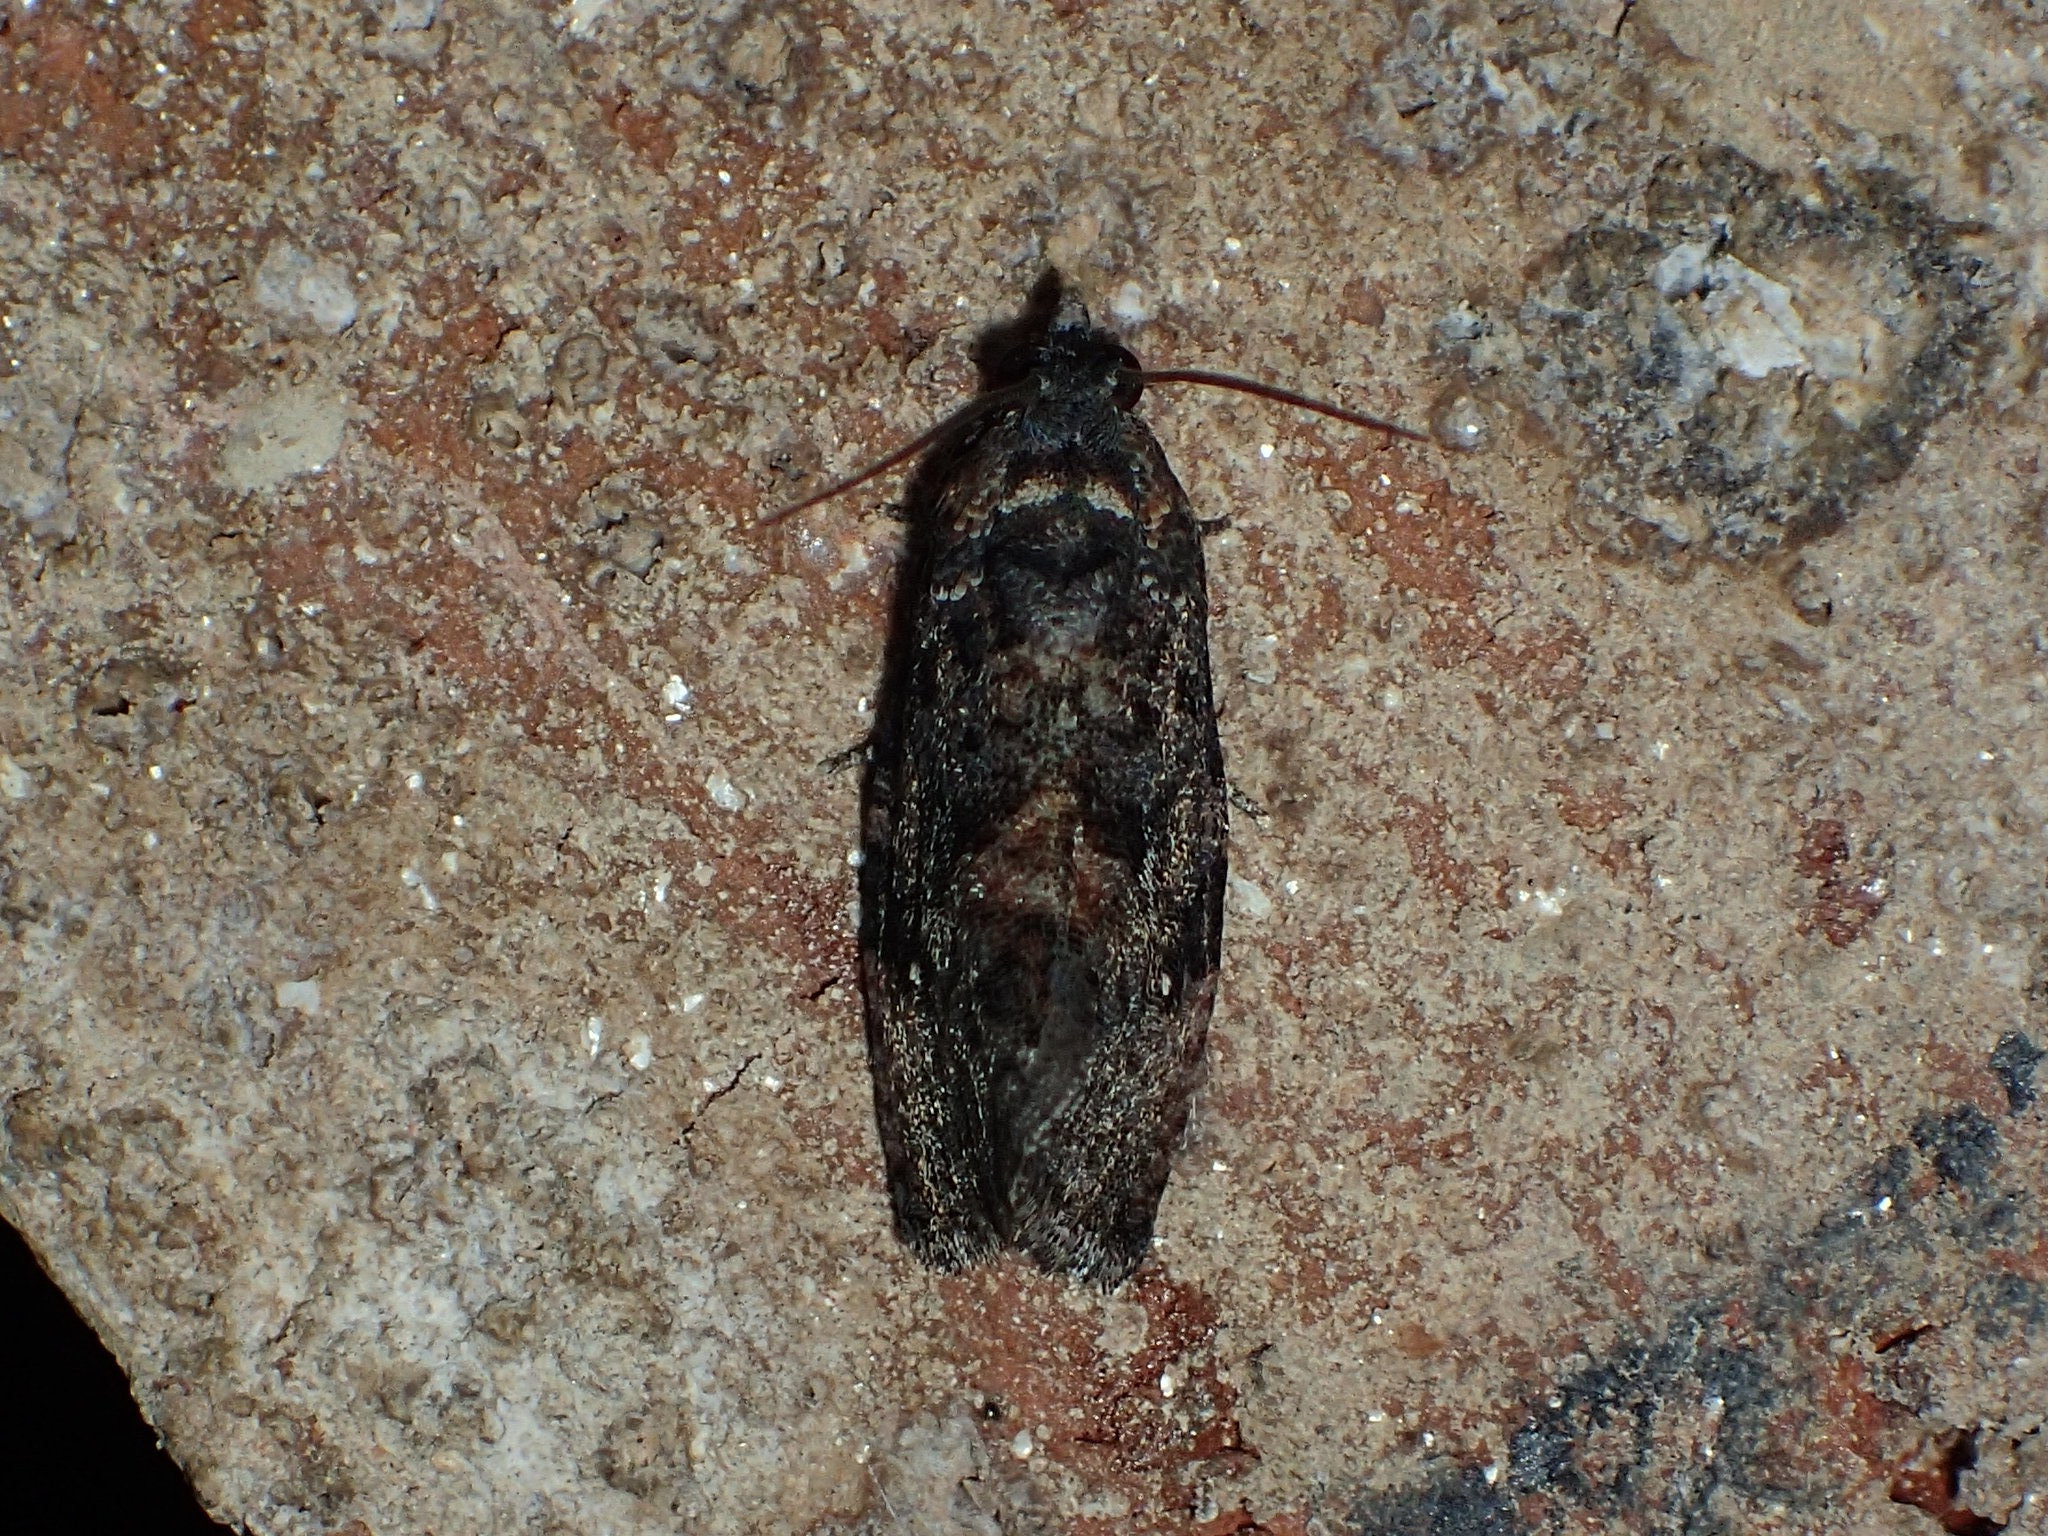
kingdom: Animalia
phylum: Arthropoda
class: Insecta
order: Lepidoptera
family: Tortricidae
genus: Gymnandrosoma
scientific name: Gymnandrosoma punctidiscanum
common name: Dotted ecdytolopha moth
